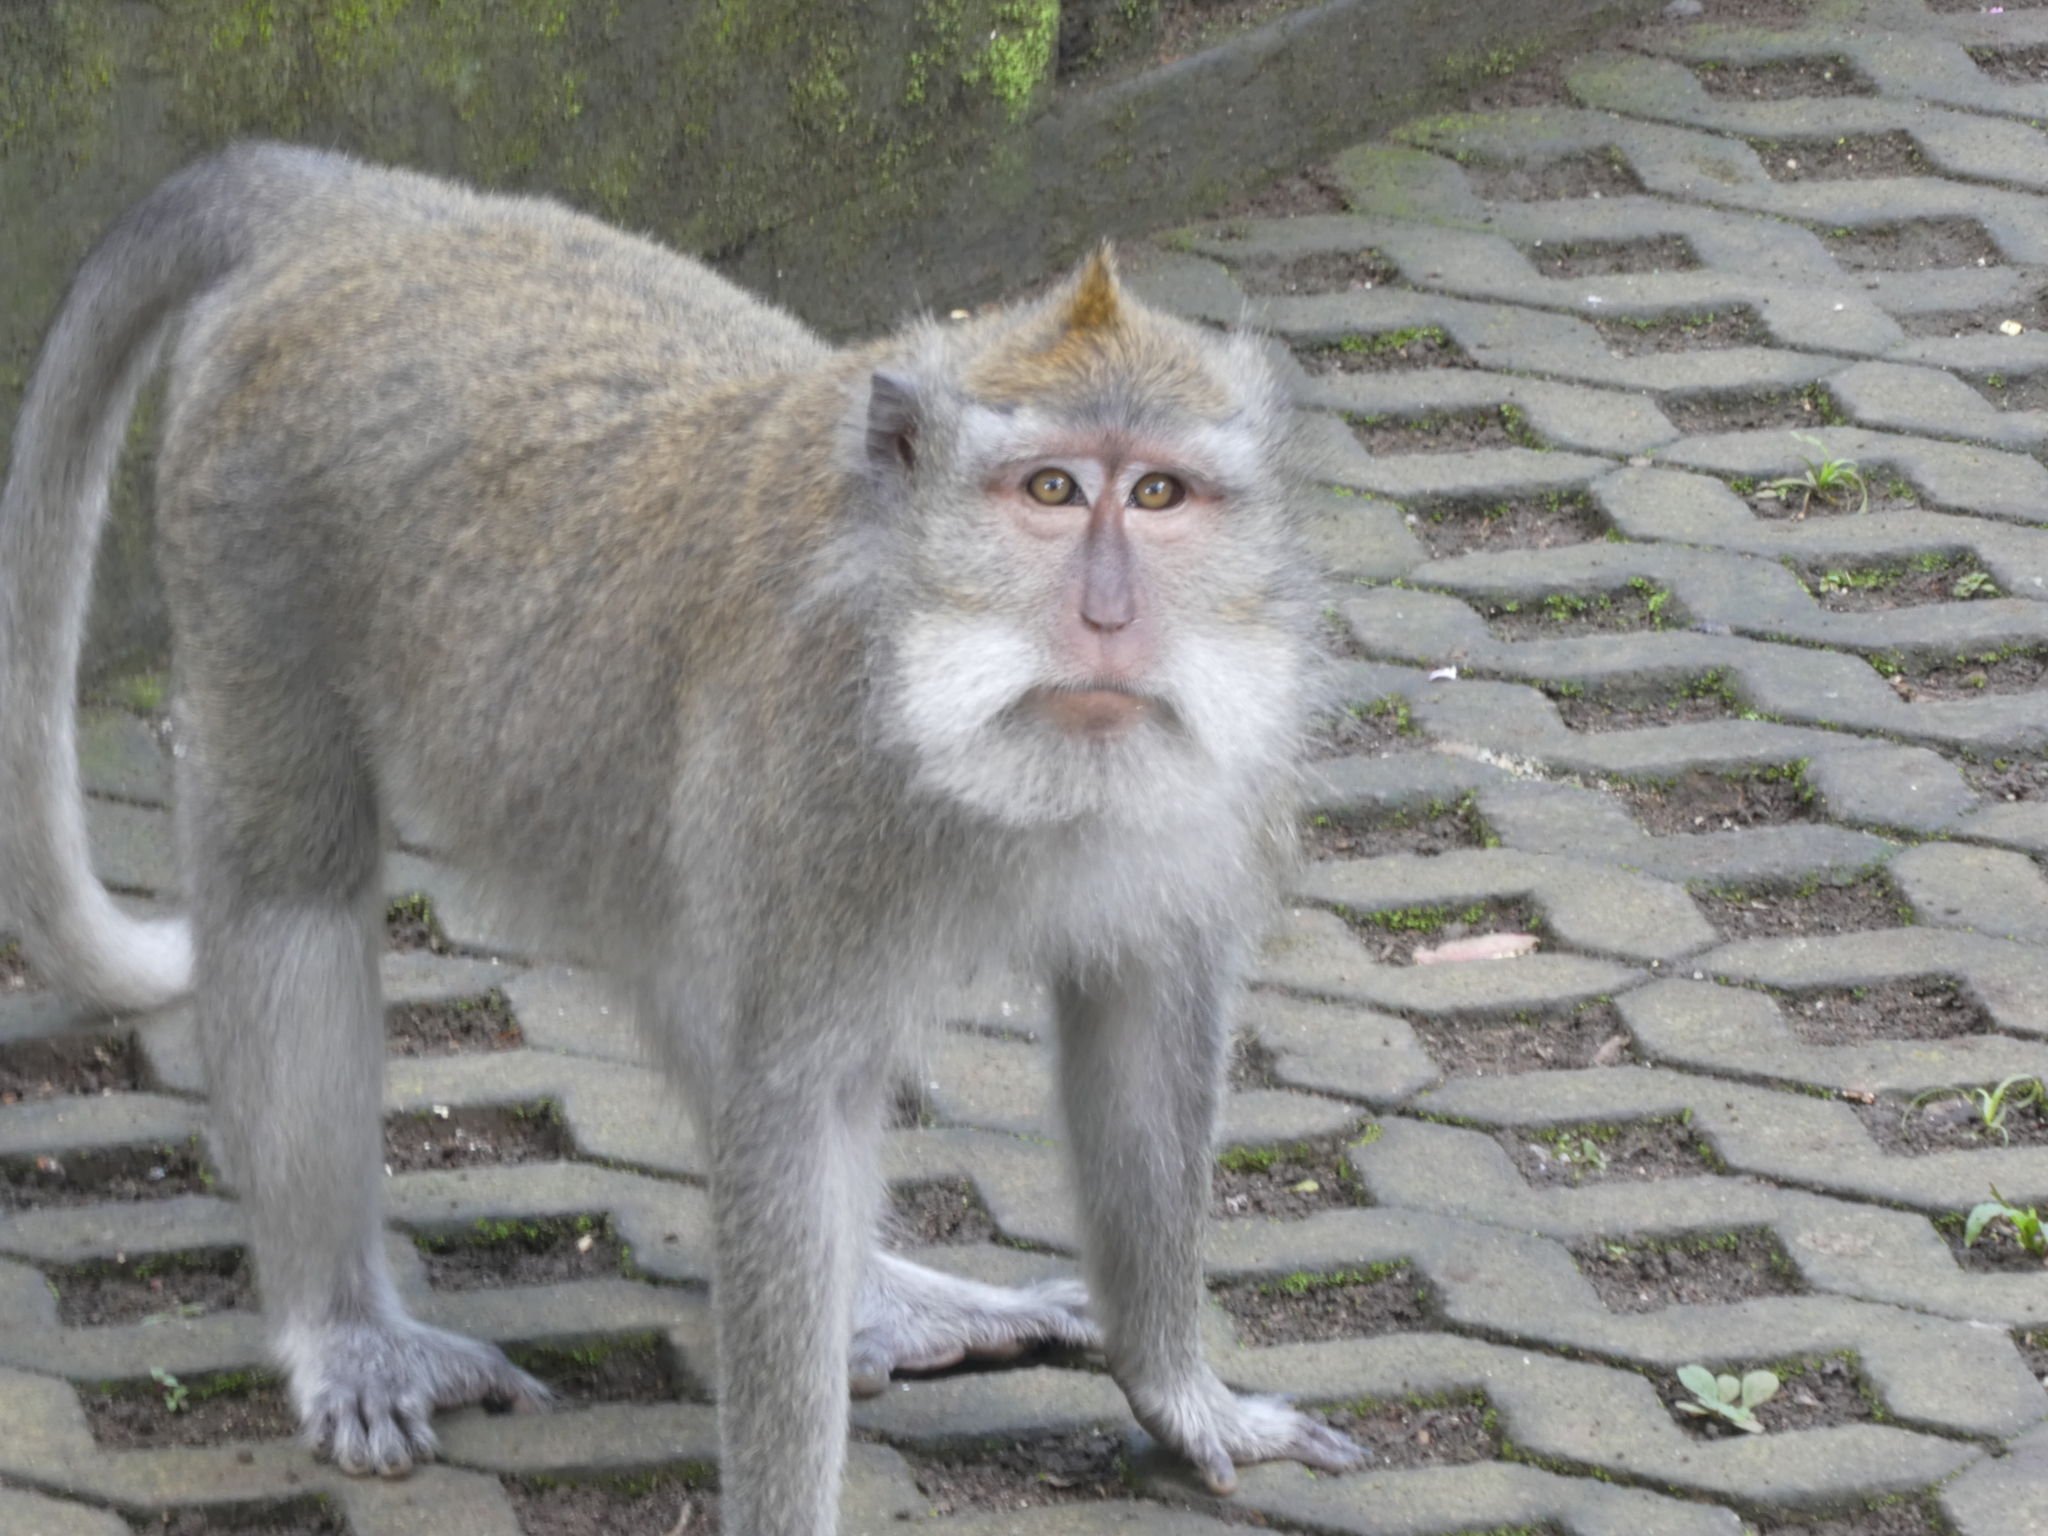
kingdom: Animalia
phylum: Chordata
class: Mammalia
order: Primates
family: Cercopithecidae
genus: Macaca
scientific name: Macaca fascicularis
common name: Crab-eating macaque
